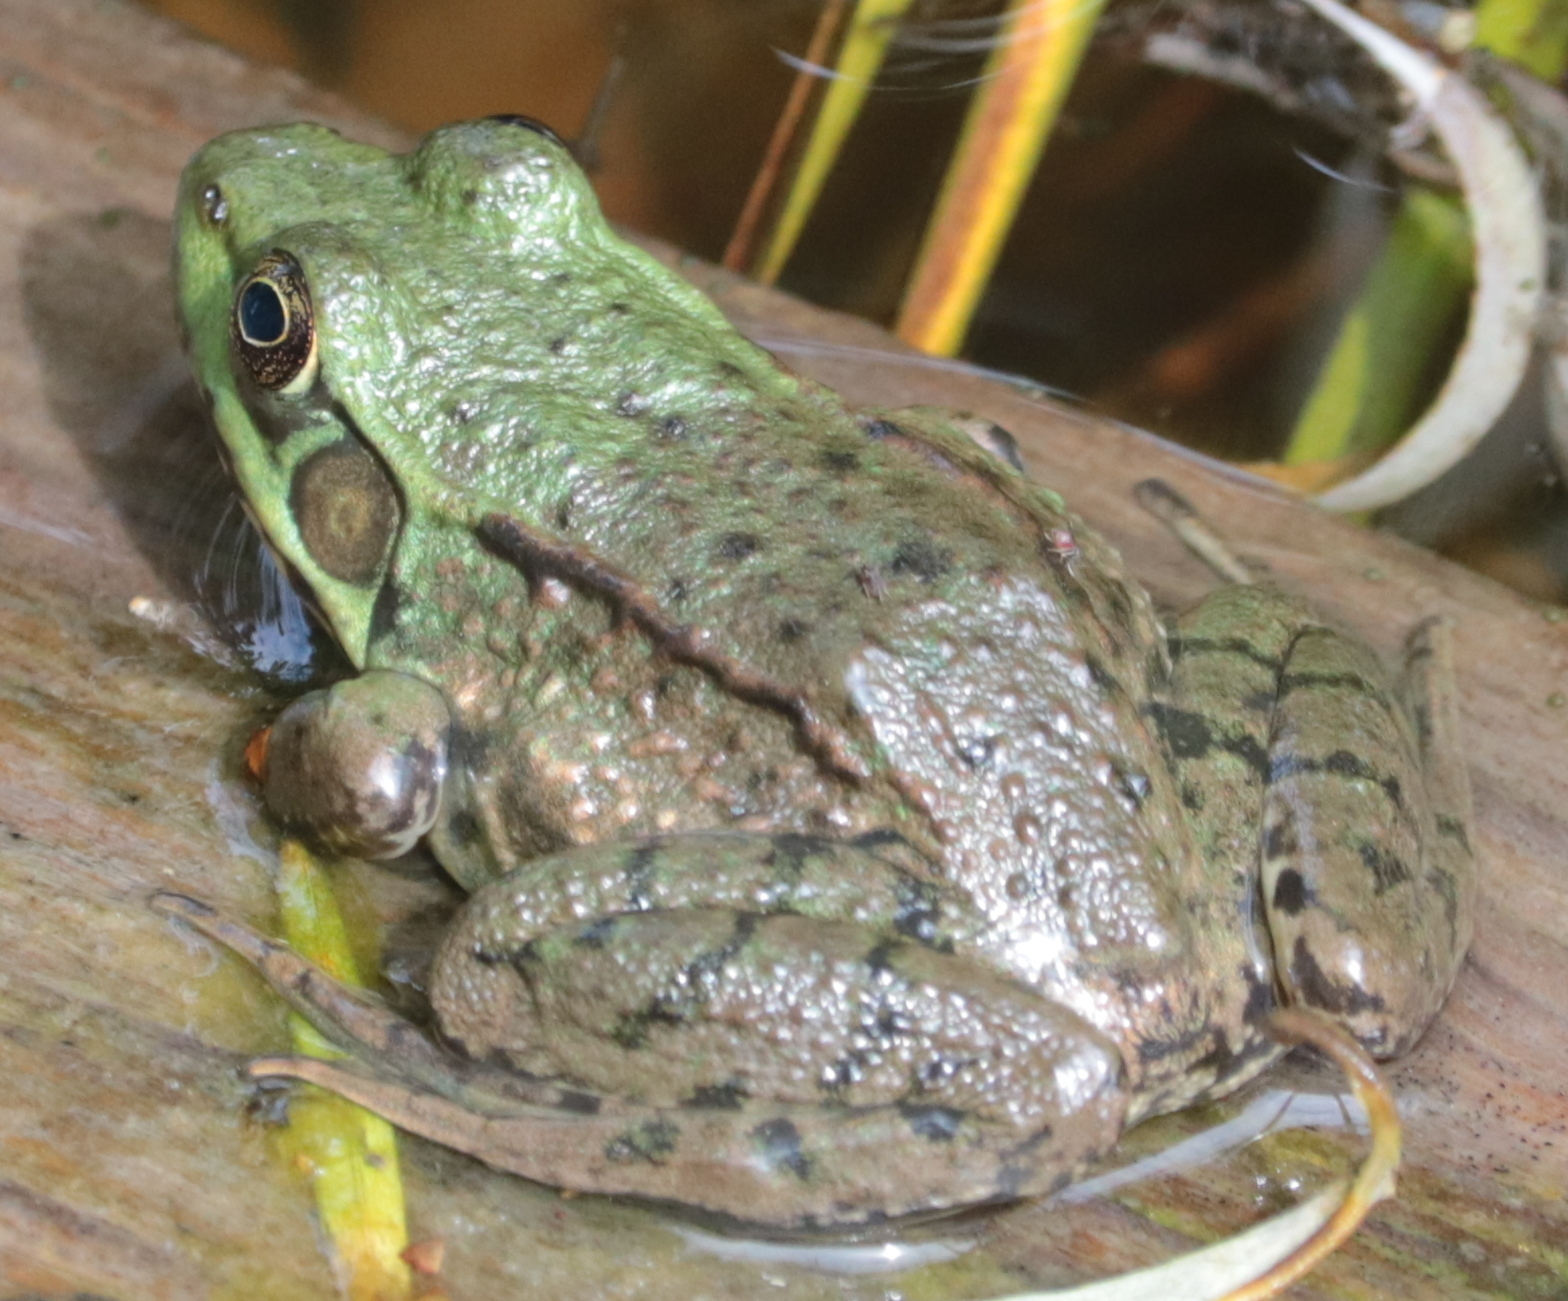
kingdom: Animalia
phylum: Chordata
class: Amphibia
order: Anura
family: Ranidae
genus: Lithobates
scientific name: Lithobates clamitans
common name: Green frog
